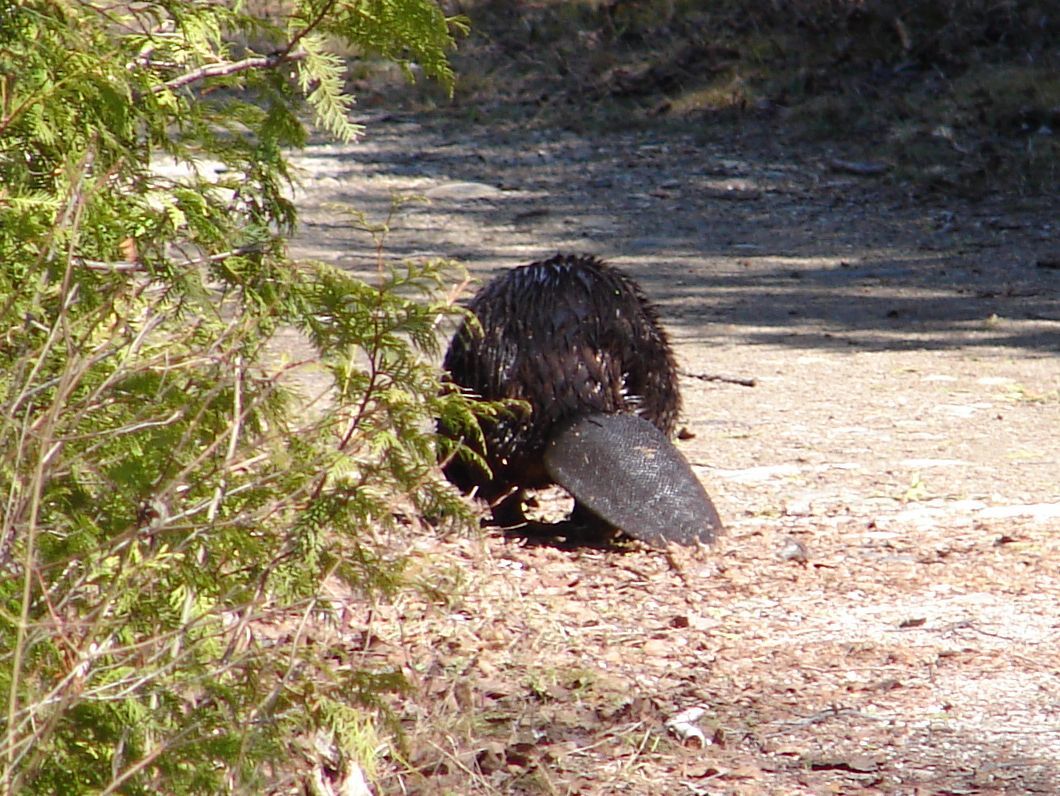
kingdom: Animalia
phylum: Chordata
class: Mammalia
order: Rodentia
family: Castoridae
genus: Castor
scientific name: Castor canadensis
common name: American beaver
